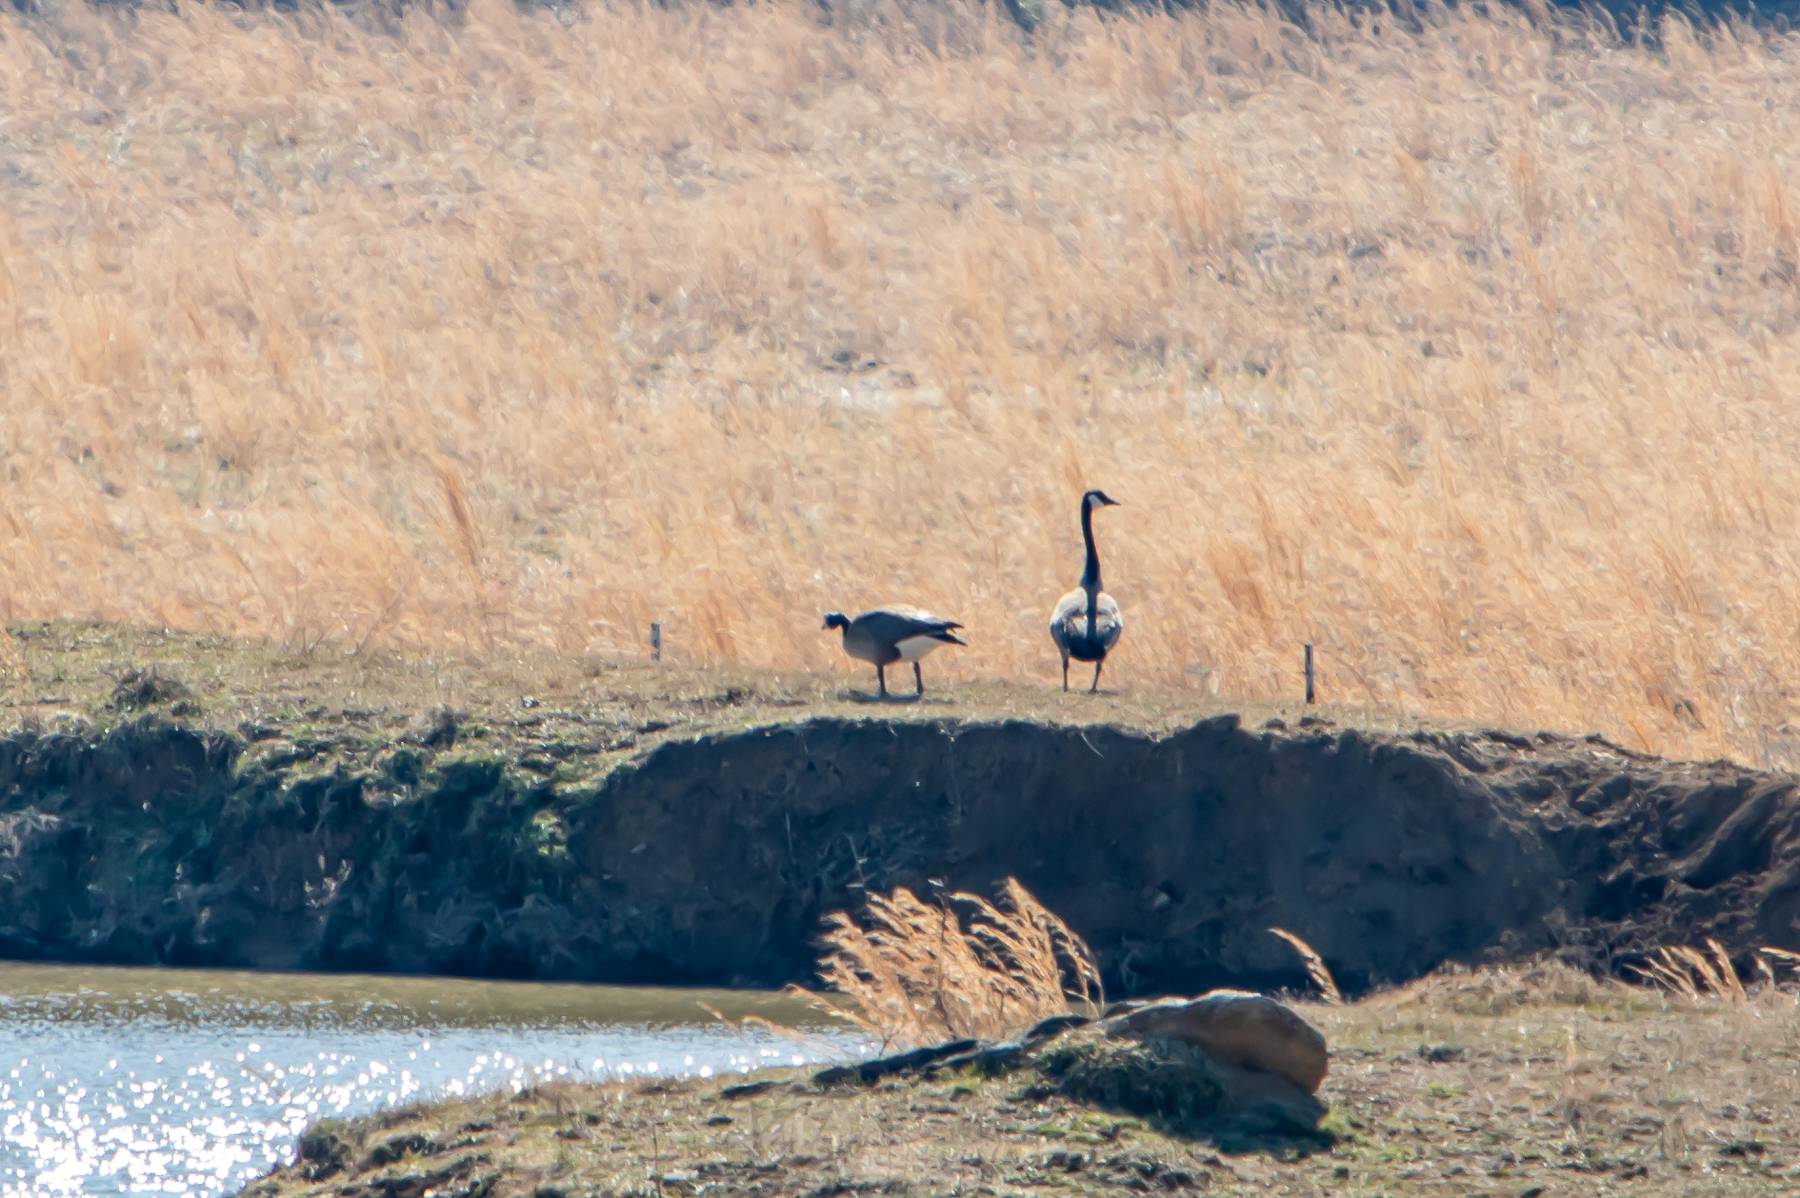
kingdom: Animalia
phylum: Chordata
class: Aves
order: Anseriformes
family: Anatidae
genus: Branta
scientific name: Branta canadensis
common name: Canada goose
